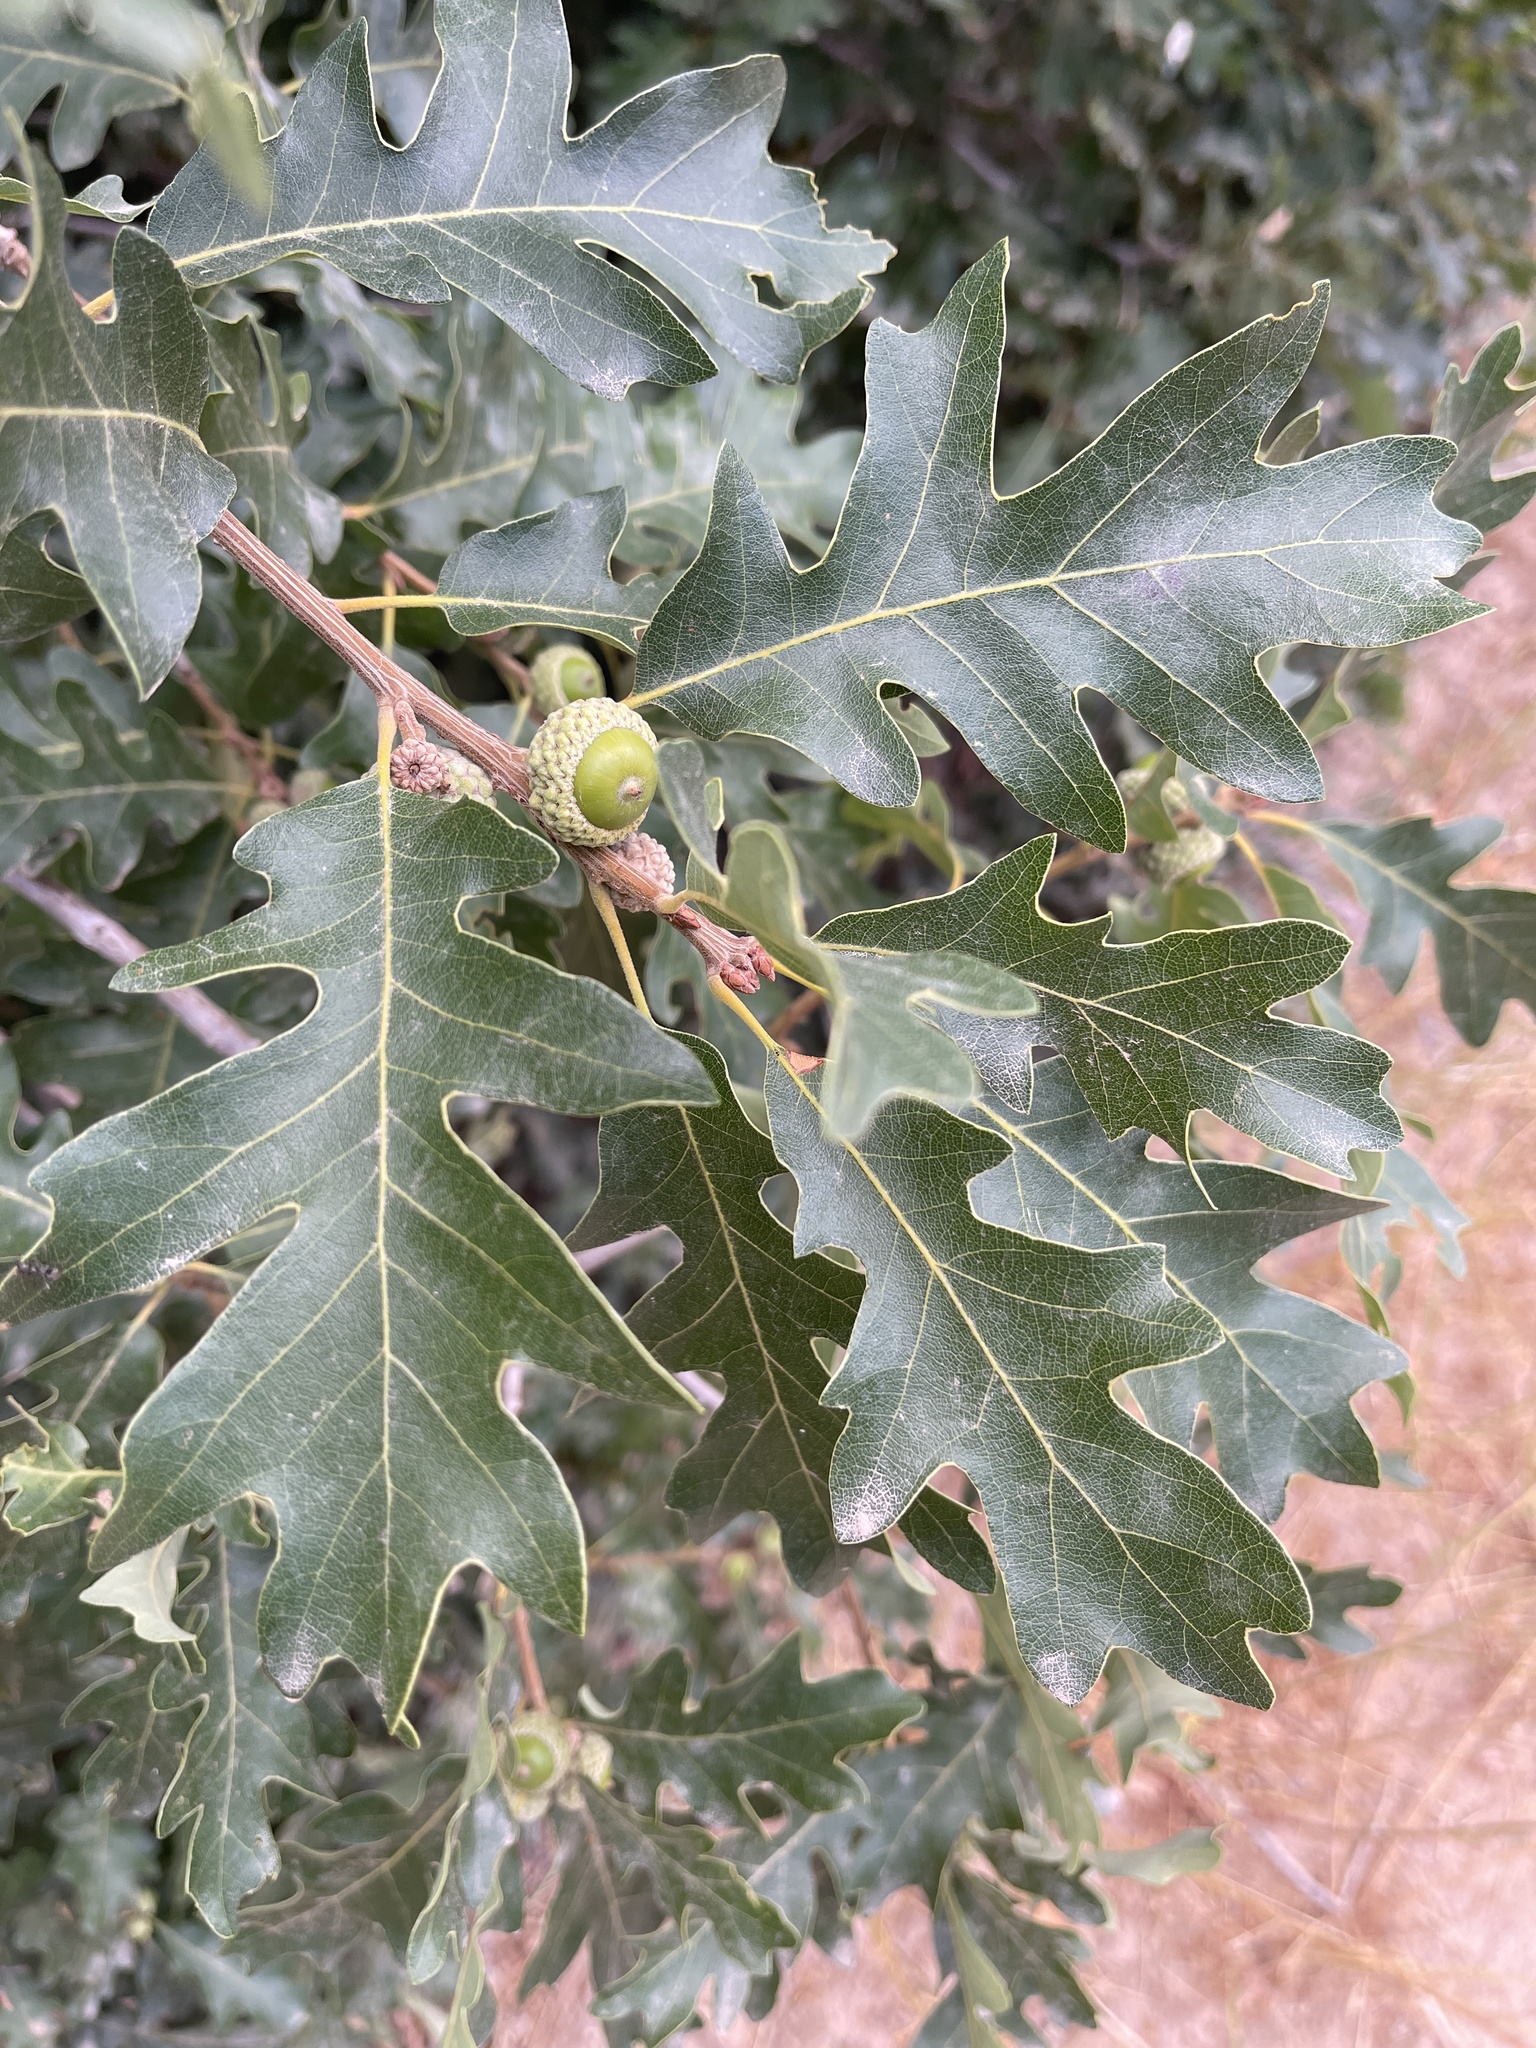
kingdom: Plantae
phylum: Tracheophyta
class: Magnoliopsida
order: Fagales
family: Fagaceae
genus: Quercus
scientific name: Quercus gambelii
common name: Gambel oak
